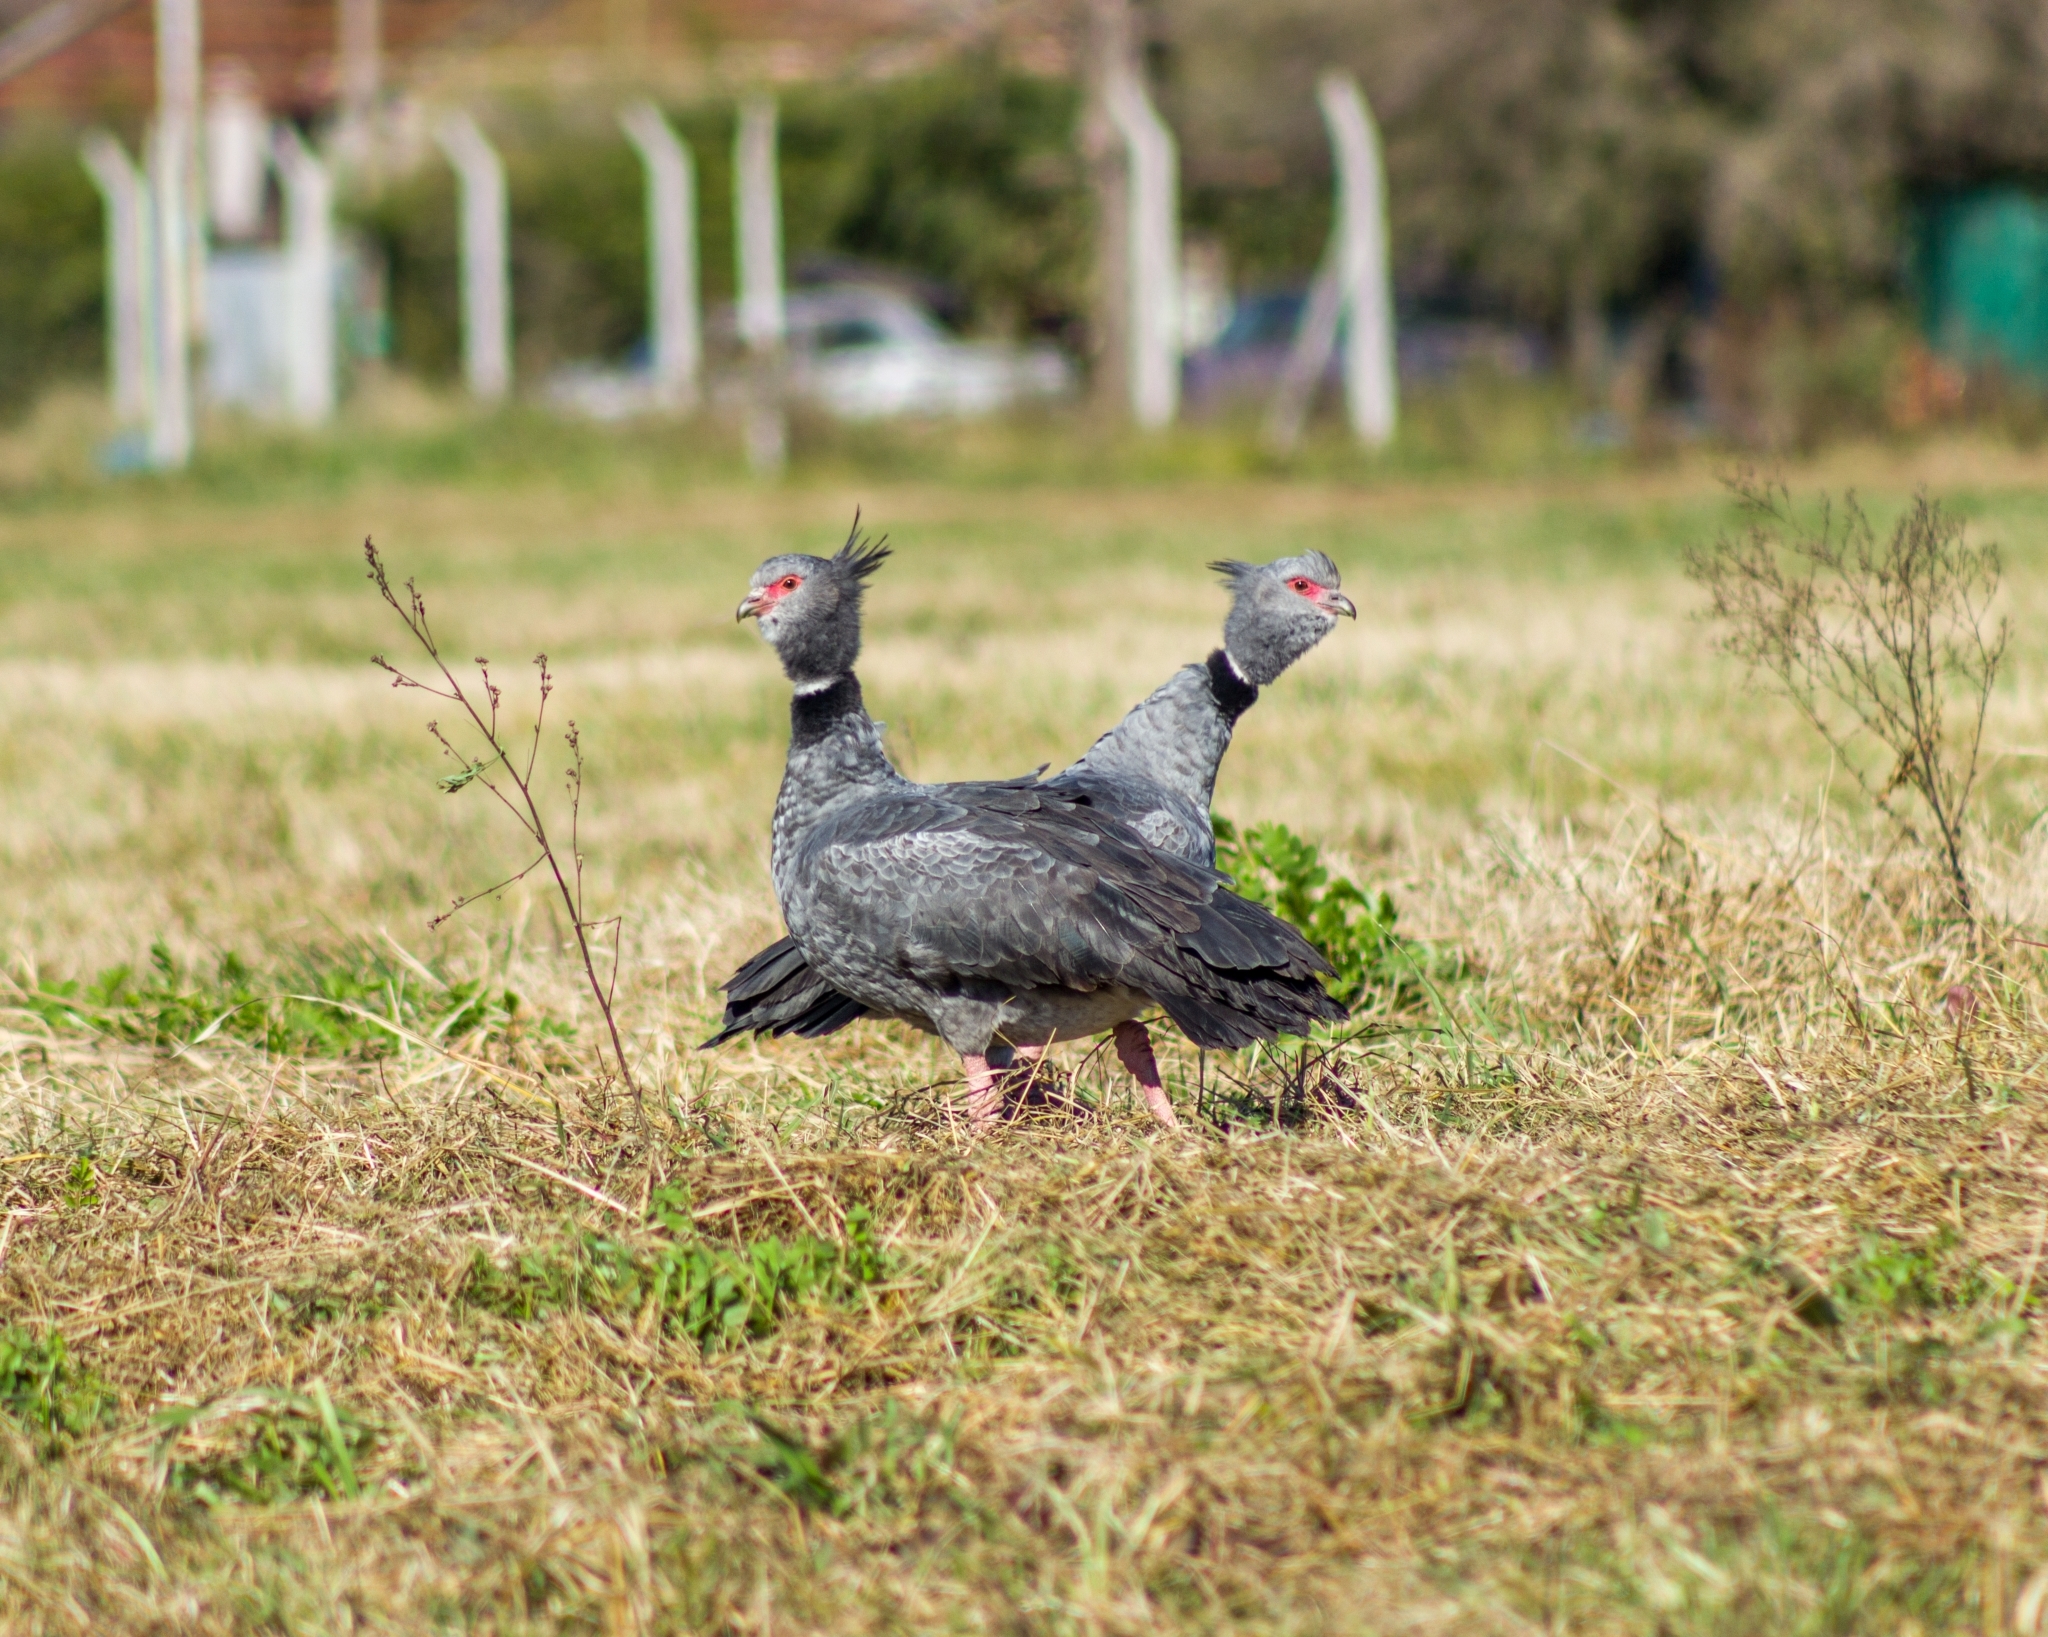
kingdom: Animalia
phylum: Chordata
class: Aves
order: Anseriformes
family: Anhimidae
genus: Chauna
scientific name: Chauna torquata
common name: Southern screamer
